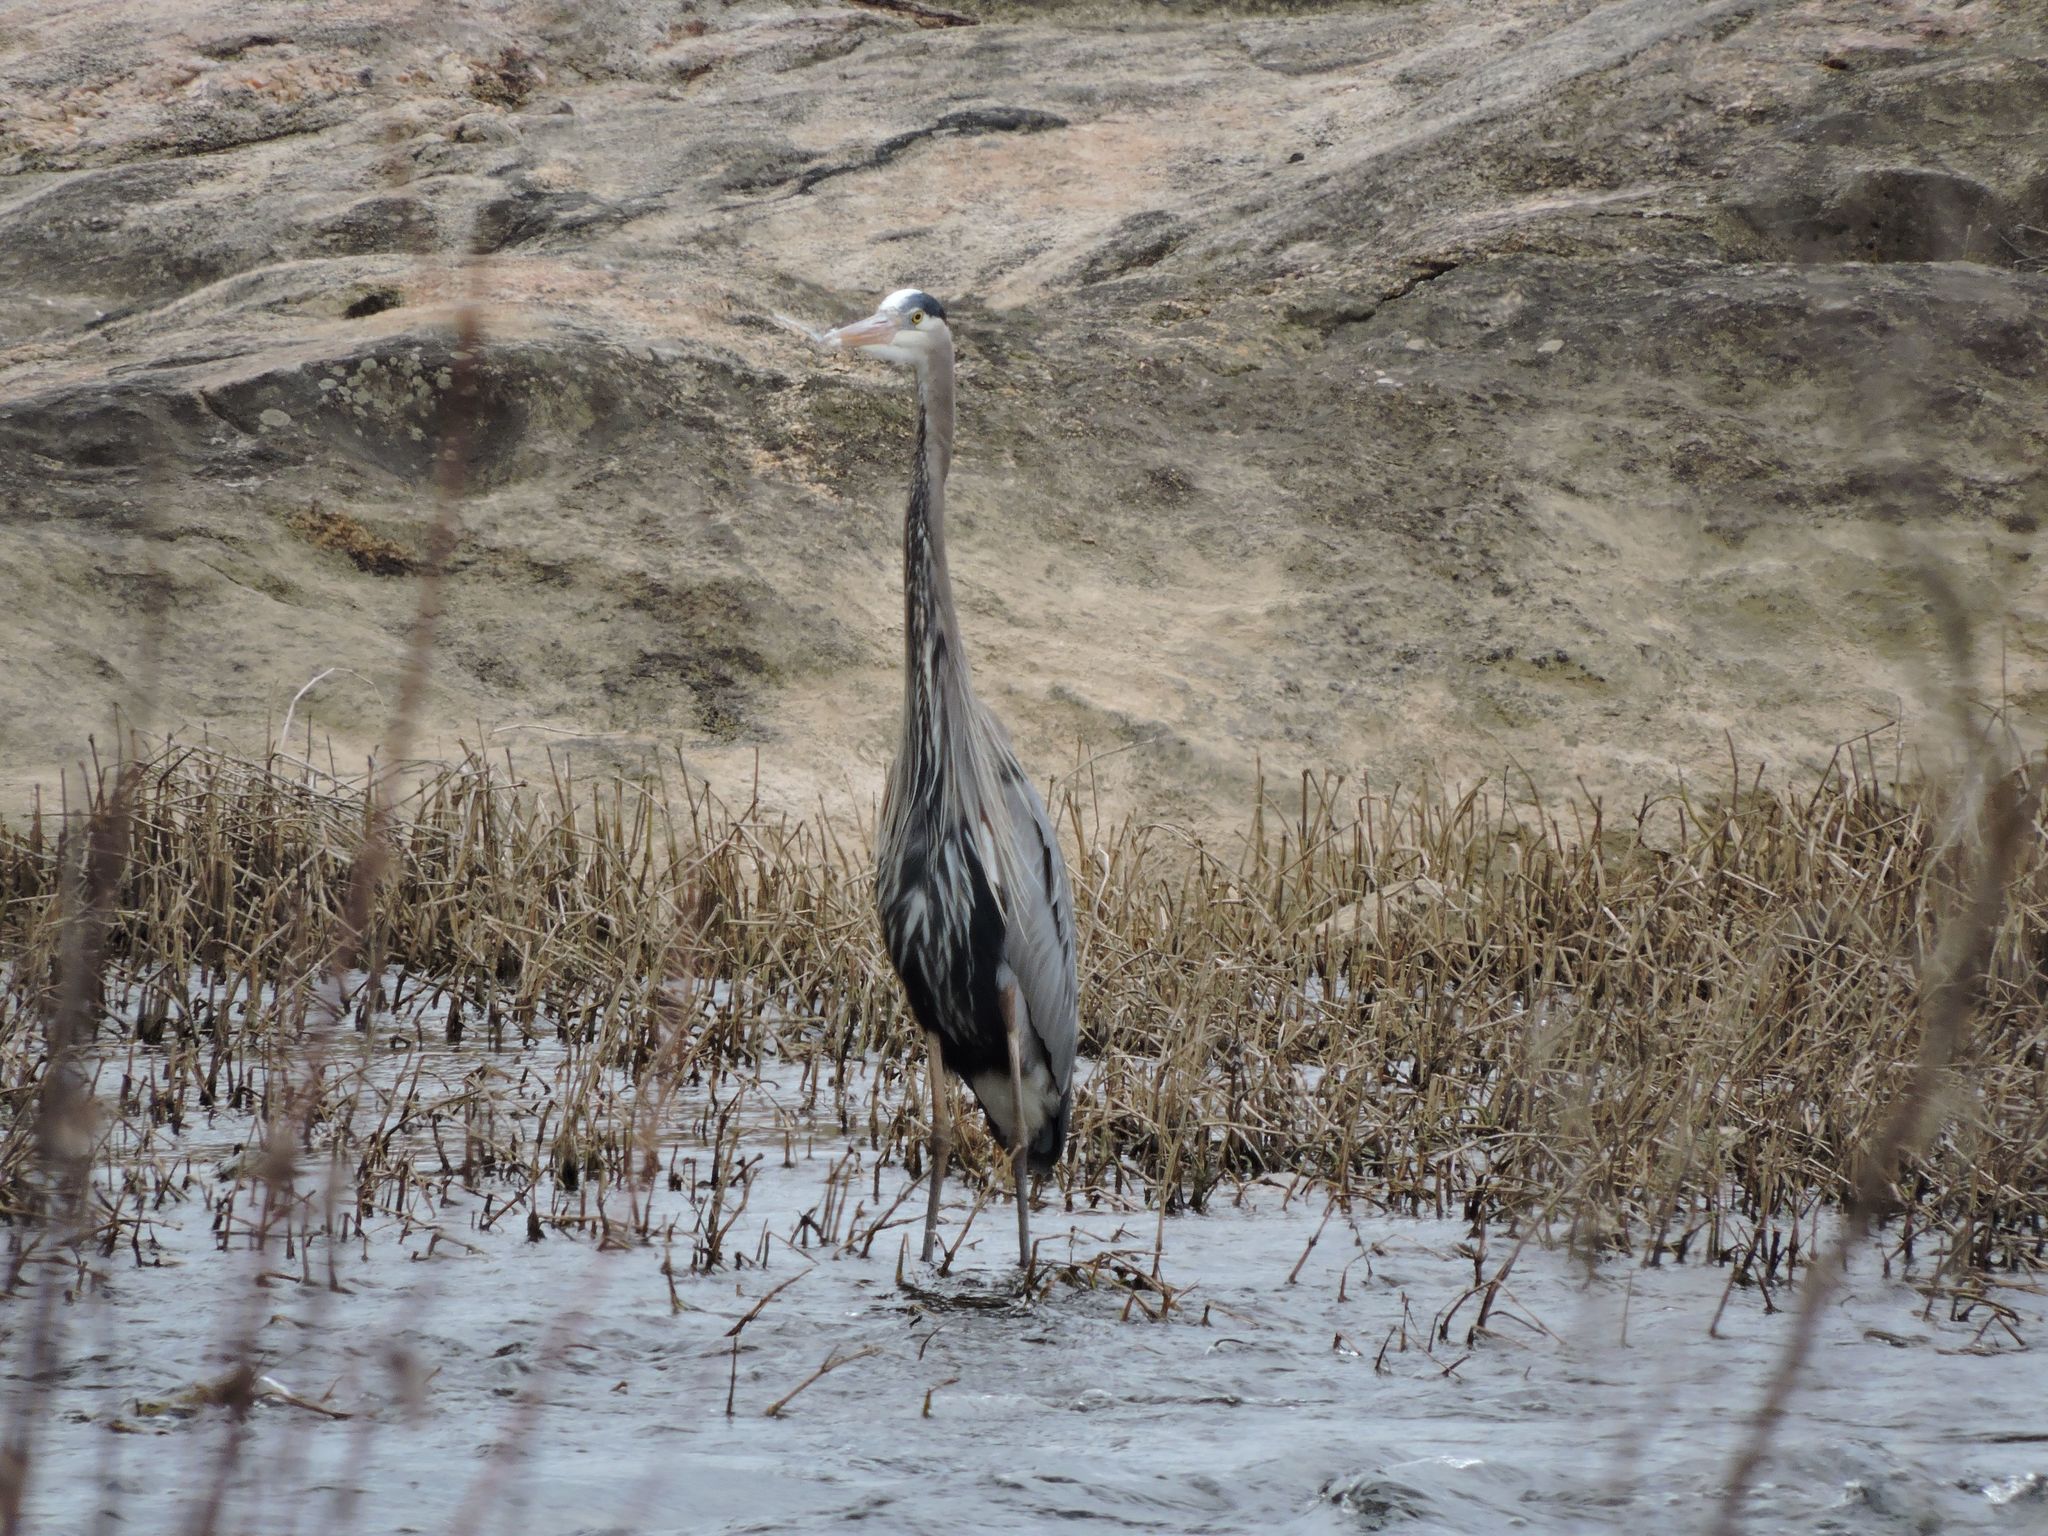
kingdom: Animalia
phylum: Chordata
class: Aves
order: Pelecaniformes
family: Ardeidae
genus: Ardea
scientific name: Ardea herodias
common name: Great blue heron
